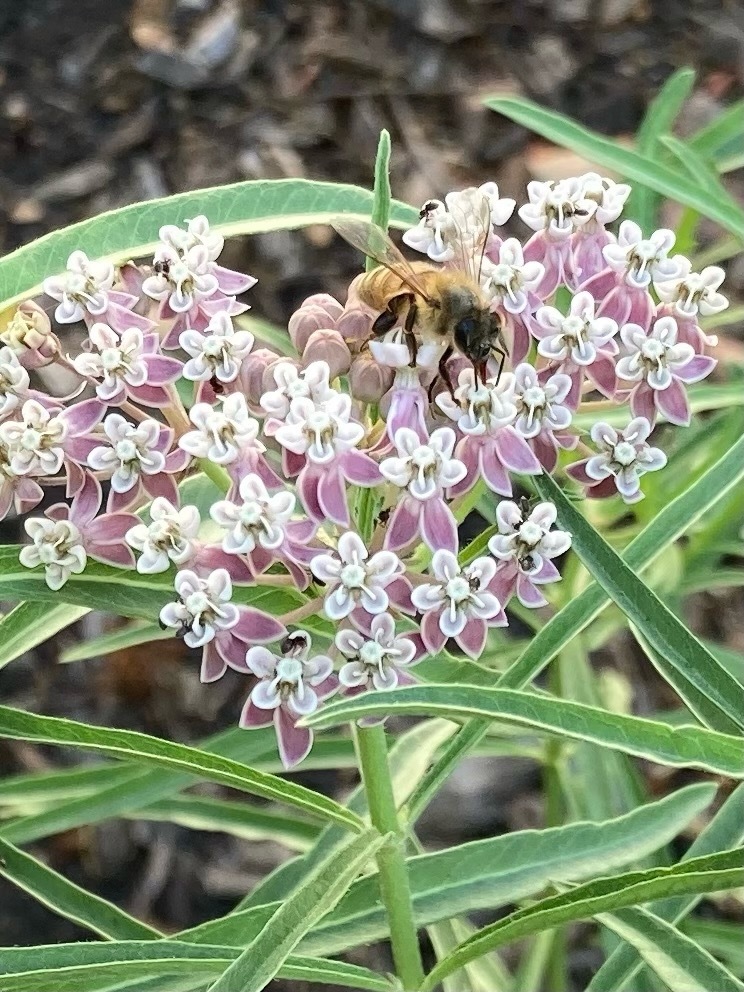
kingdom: Animalia
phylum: Arthropoda
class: Insecta
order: Hymenoptera
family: Apidae
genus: Apis
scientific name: Apis mellifera
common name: Honey bee
